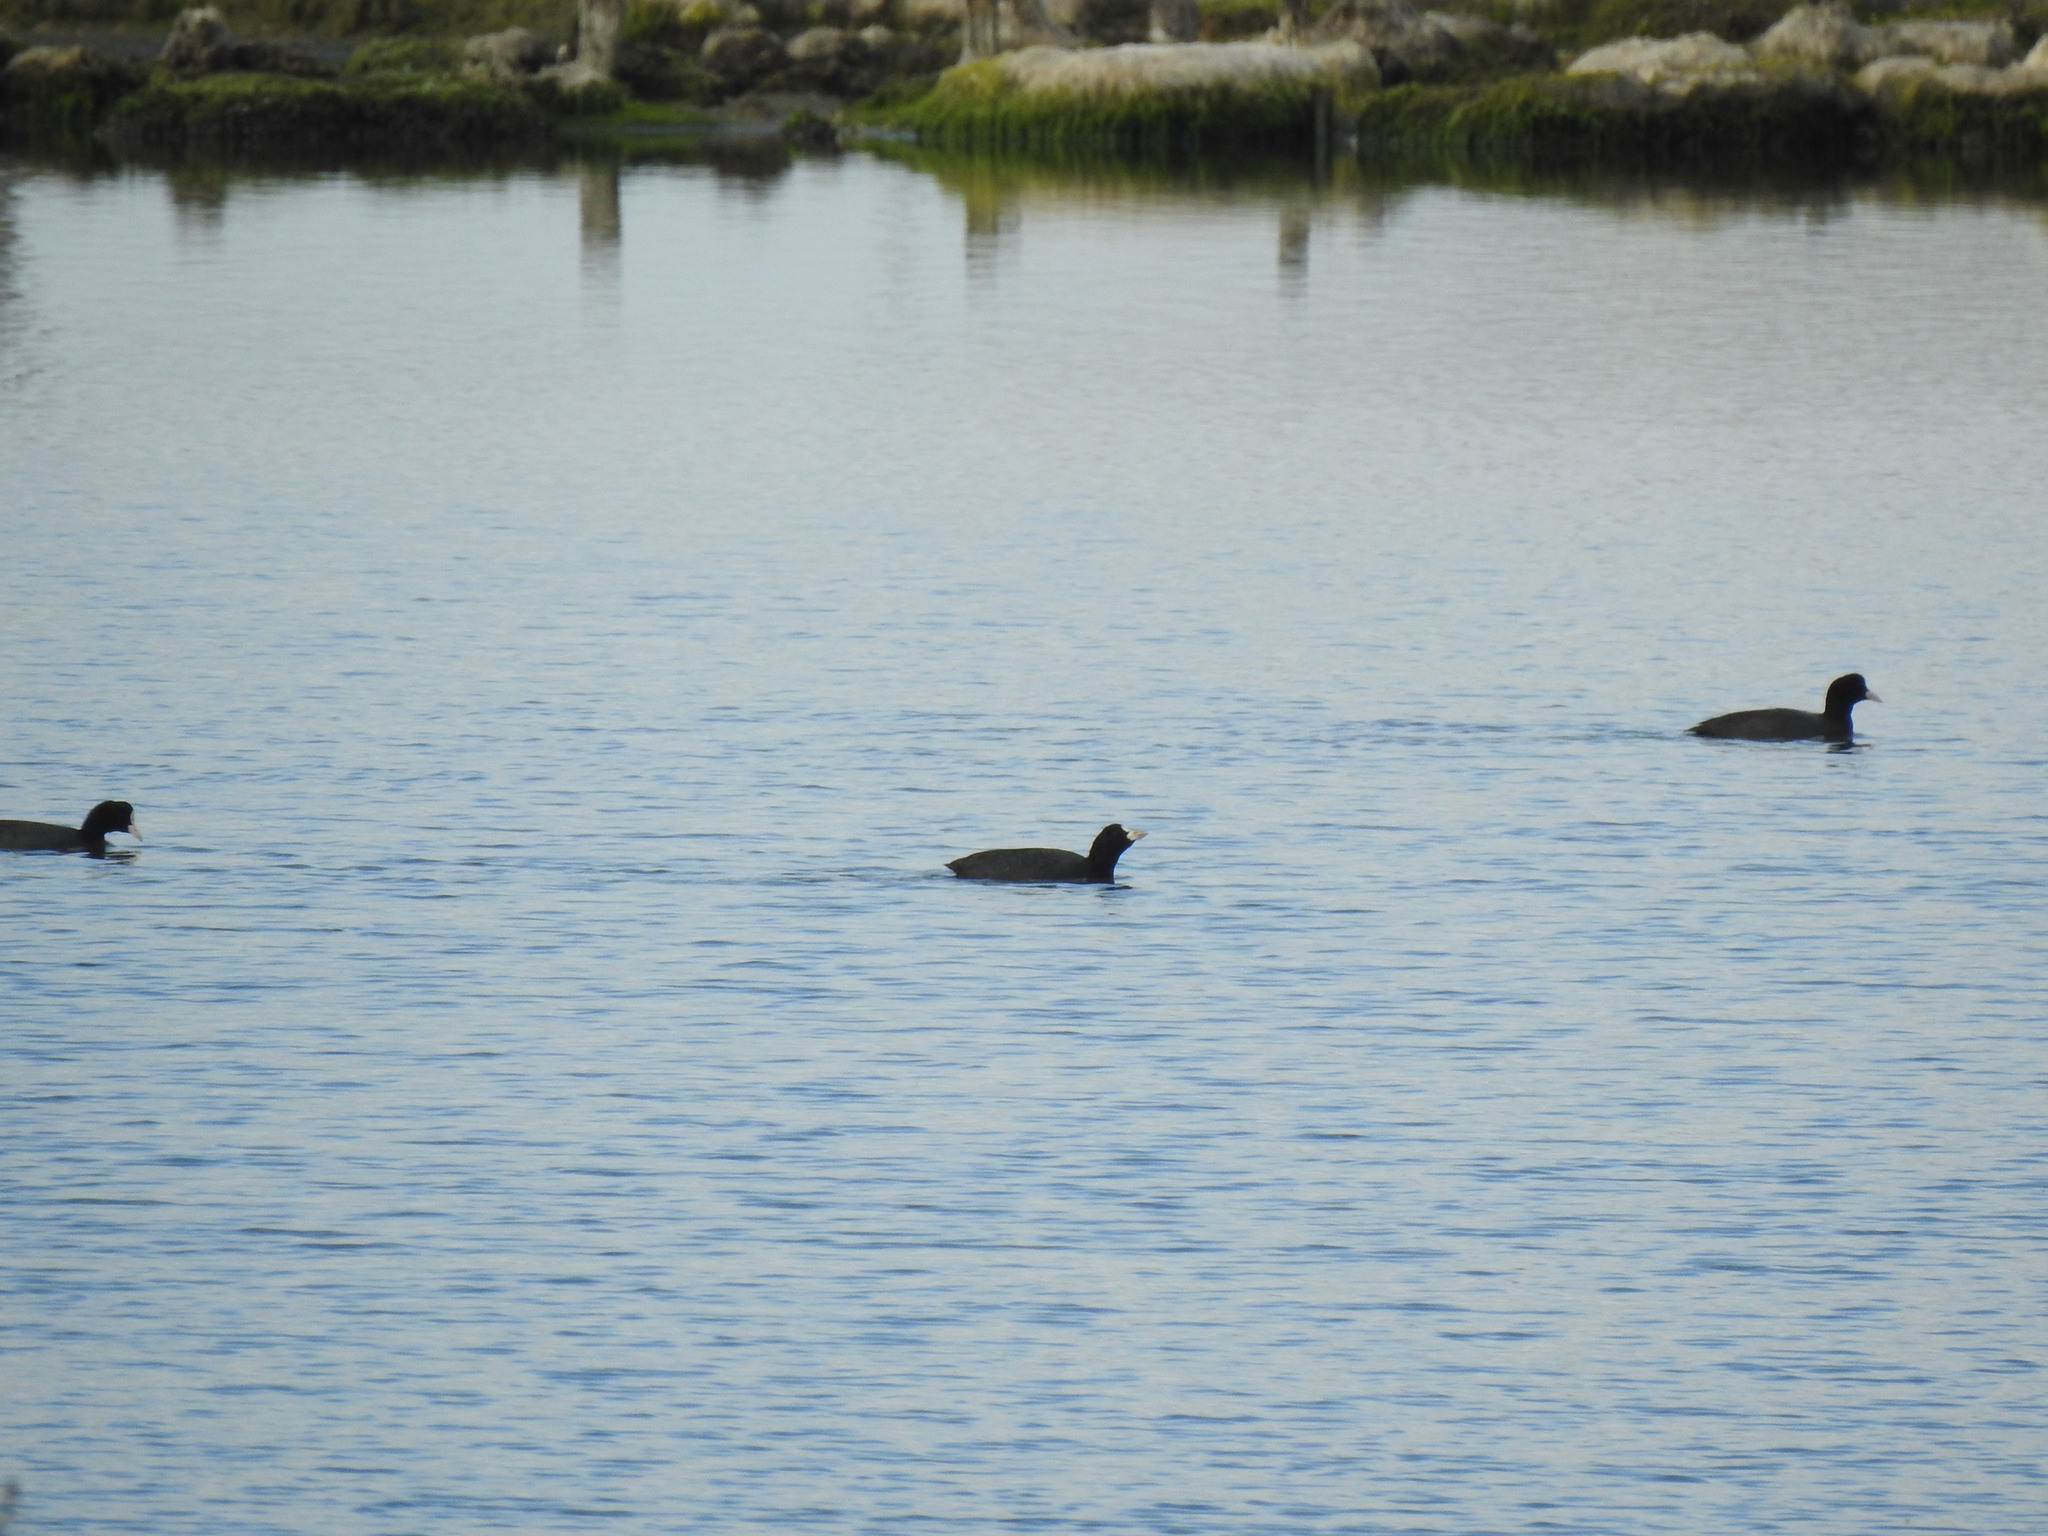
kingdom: Animalia
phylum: Chordata
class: Aves
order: Gruiformes
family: Rallidae
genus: Fulica
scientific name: Fulica atra
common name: Eurasian coot
